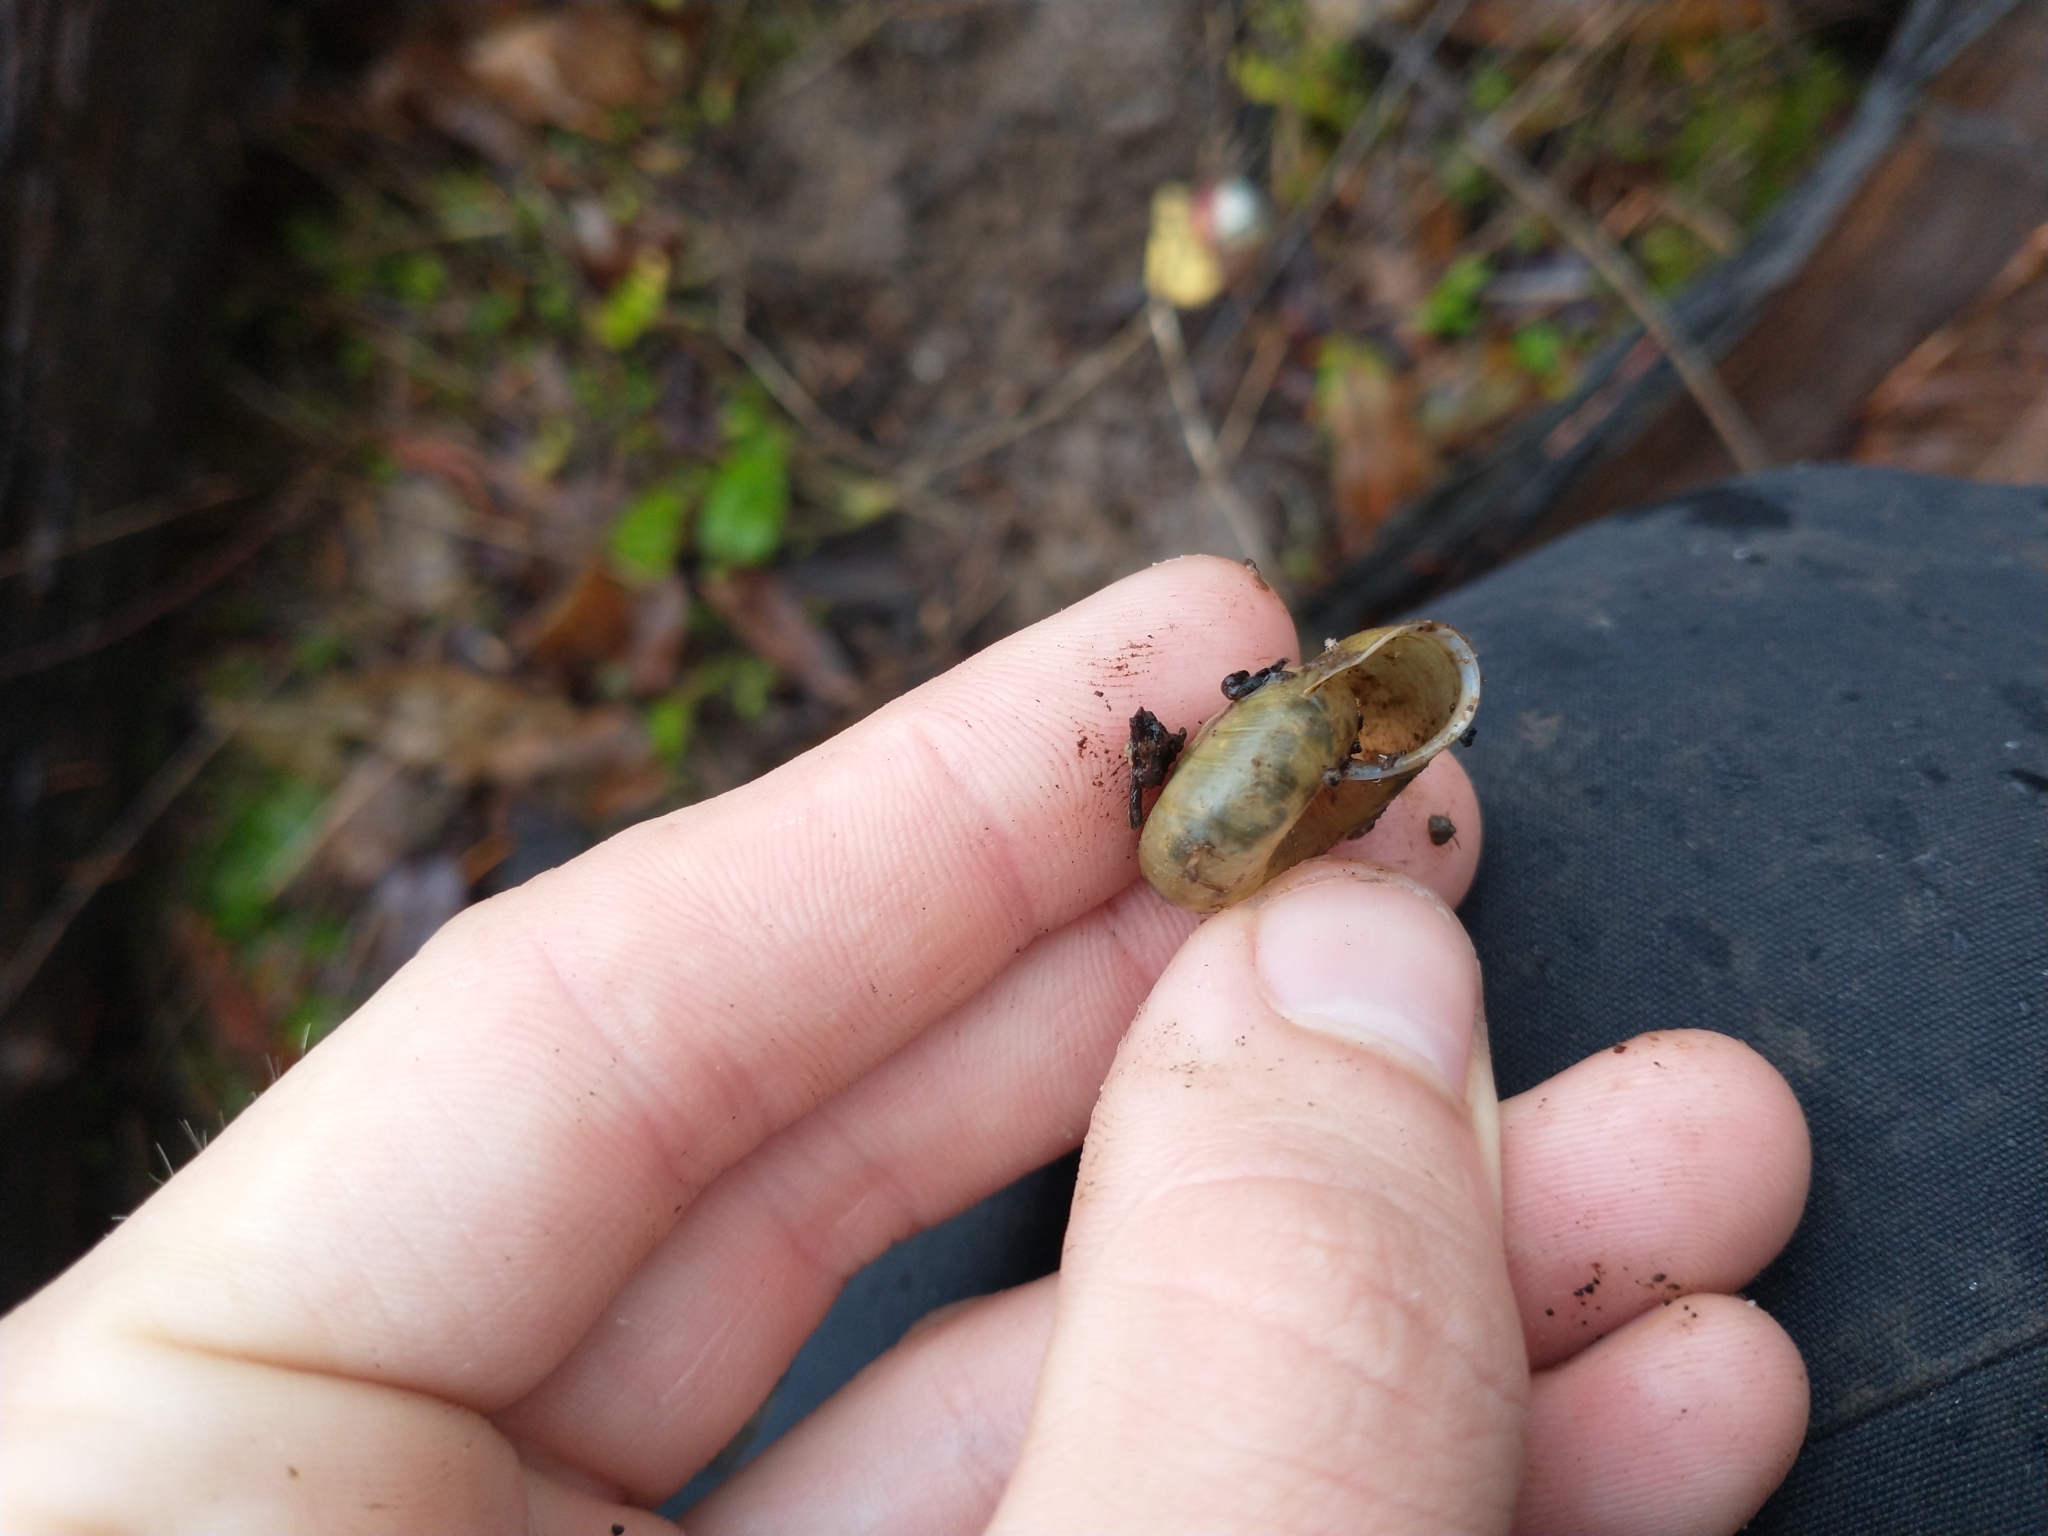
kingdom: Animalia
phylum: Mollusca
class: Gastropoda
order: Stylommatophora
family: Haplotrematidae
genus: Haplotrema
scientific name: Haplotrema vancouverense
